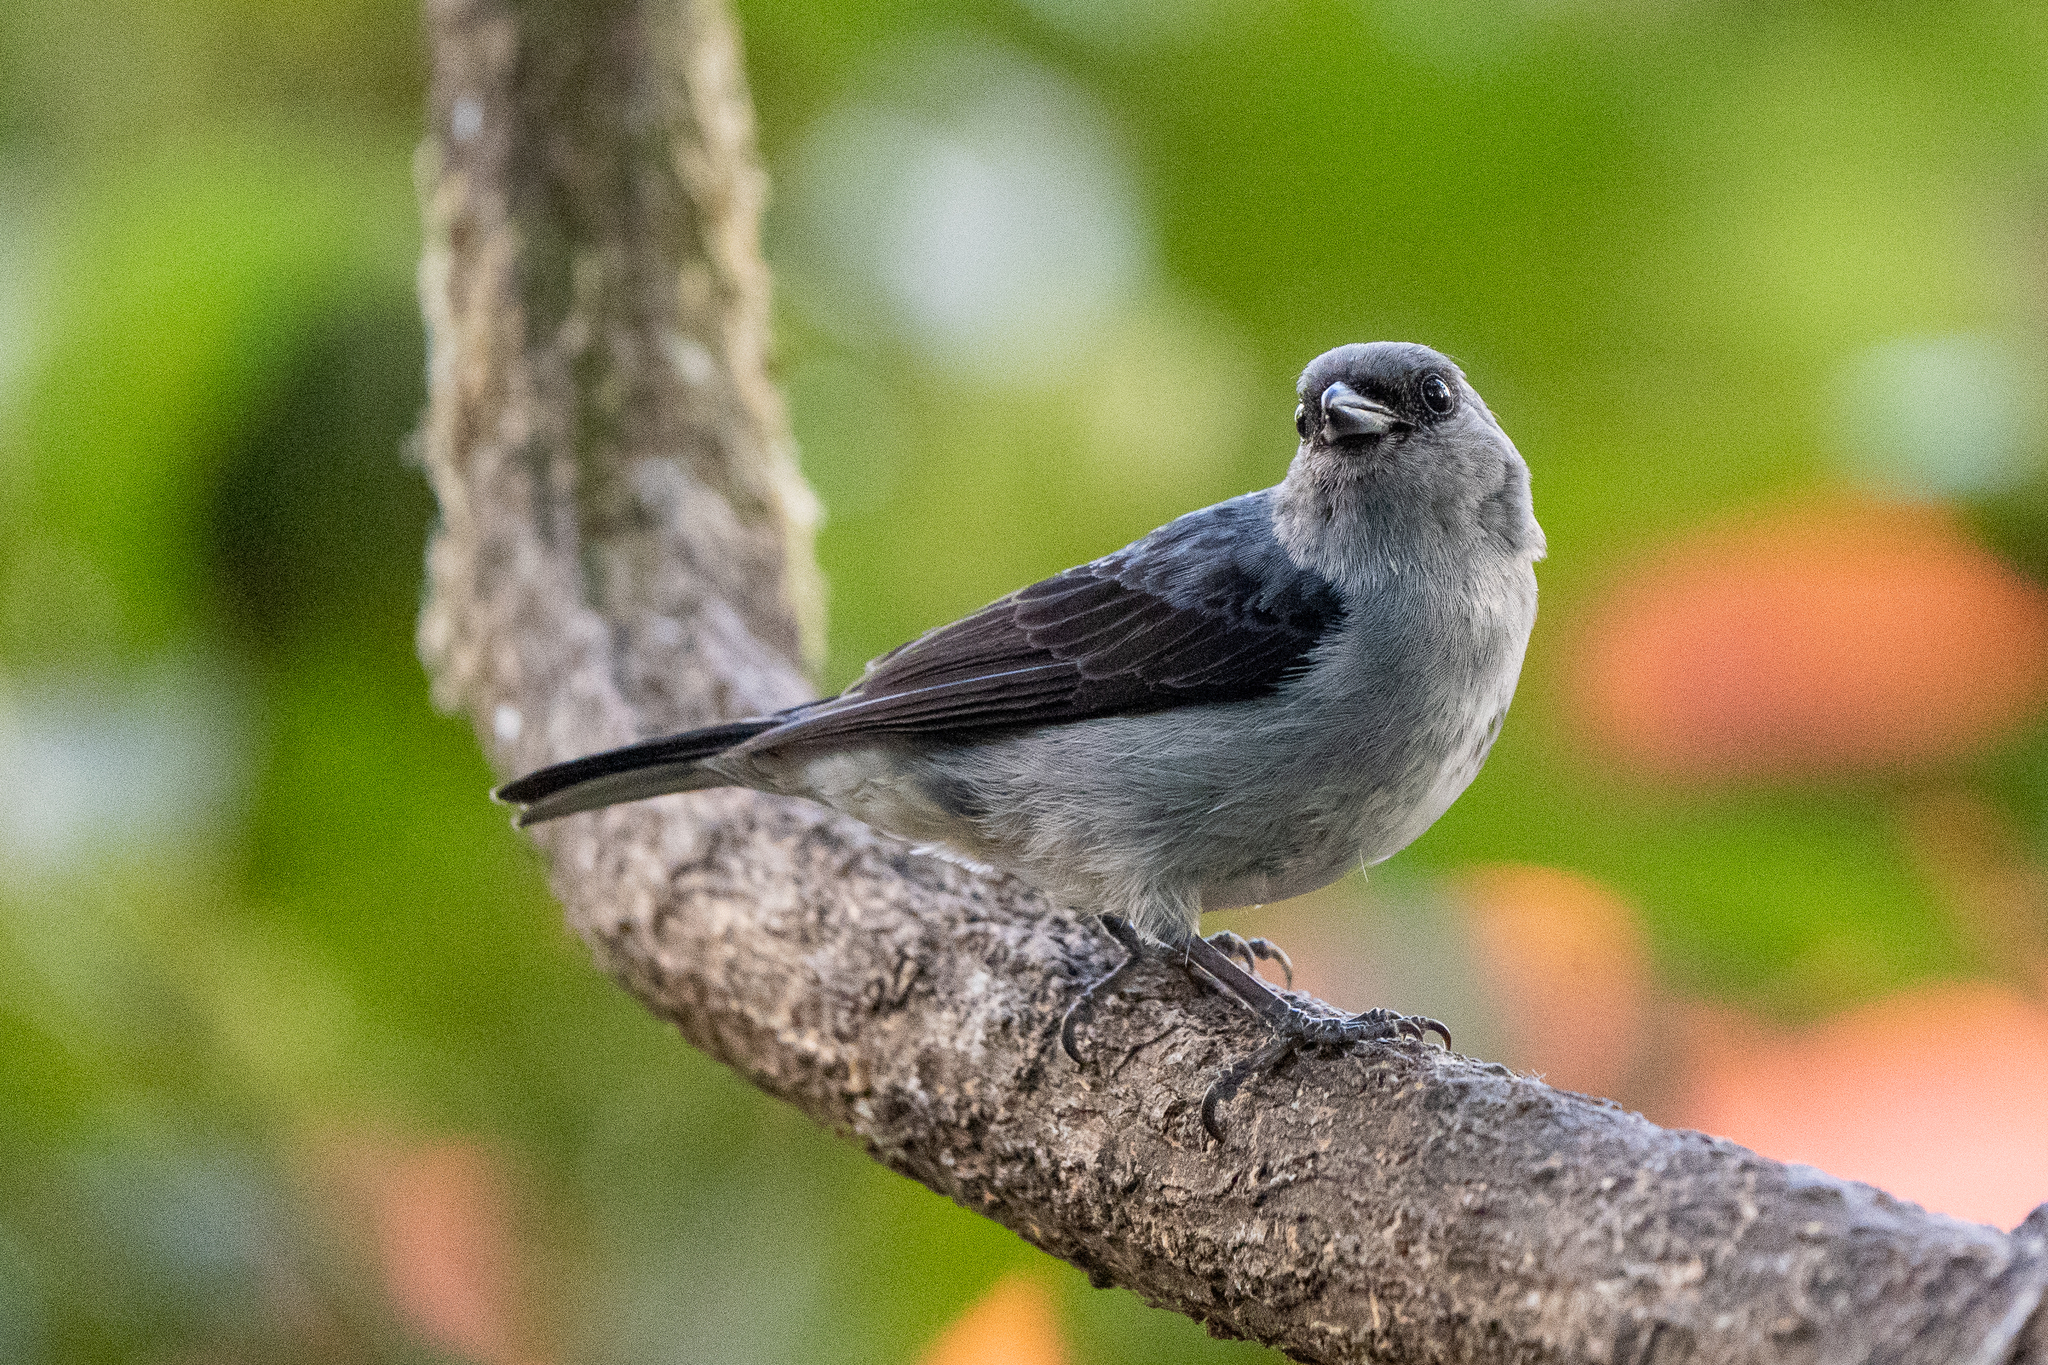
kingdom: Animalia
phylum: Chordata
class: Aves
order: Passeriformes
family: Thraupidae
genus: Tangara
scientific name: Tangara inornata
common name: Plain-colored tanager
